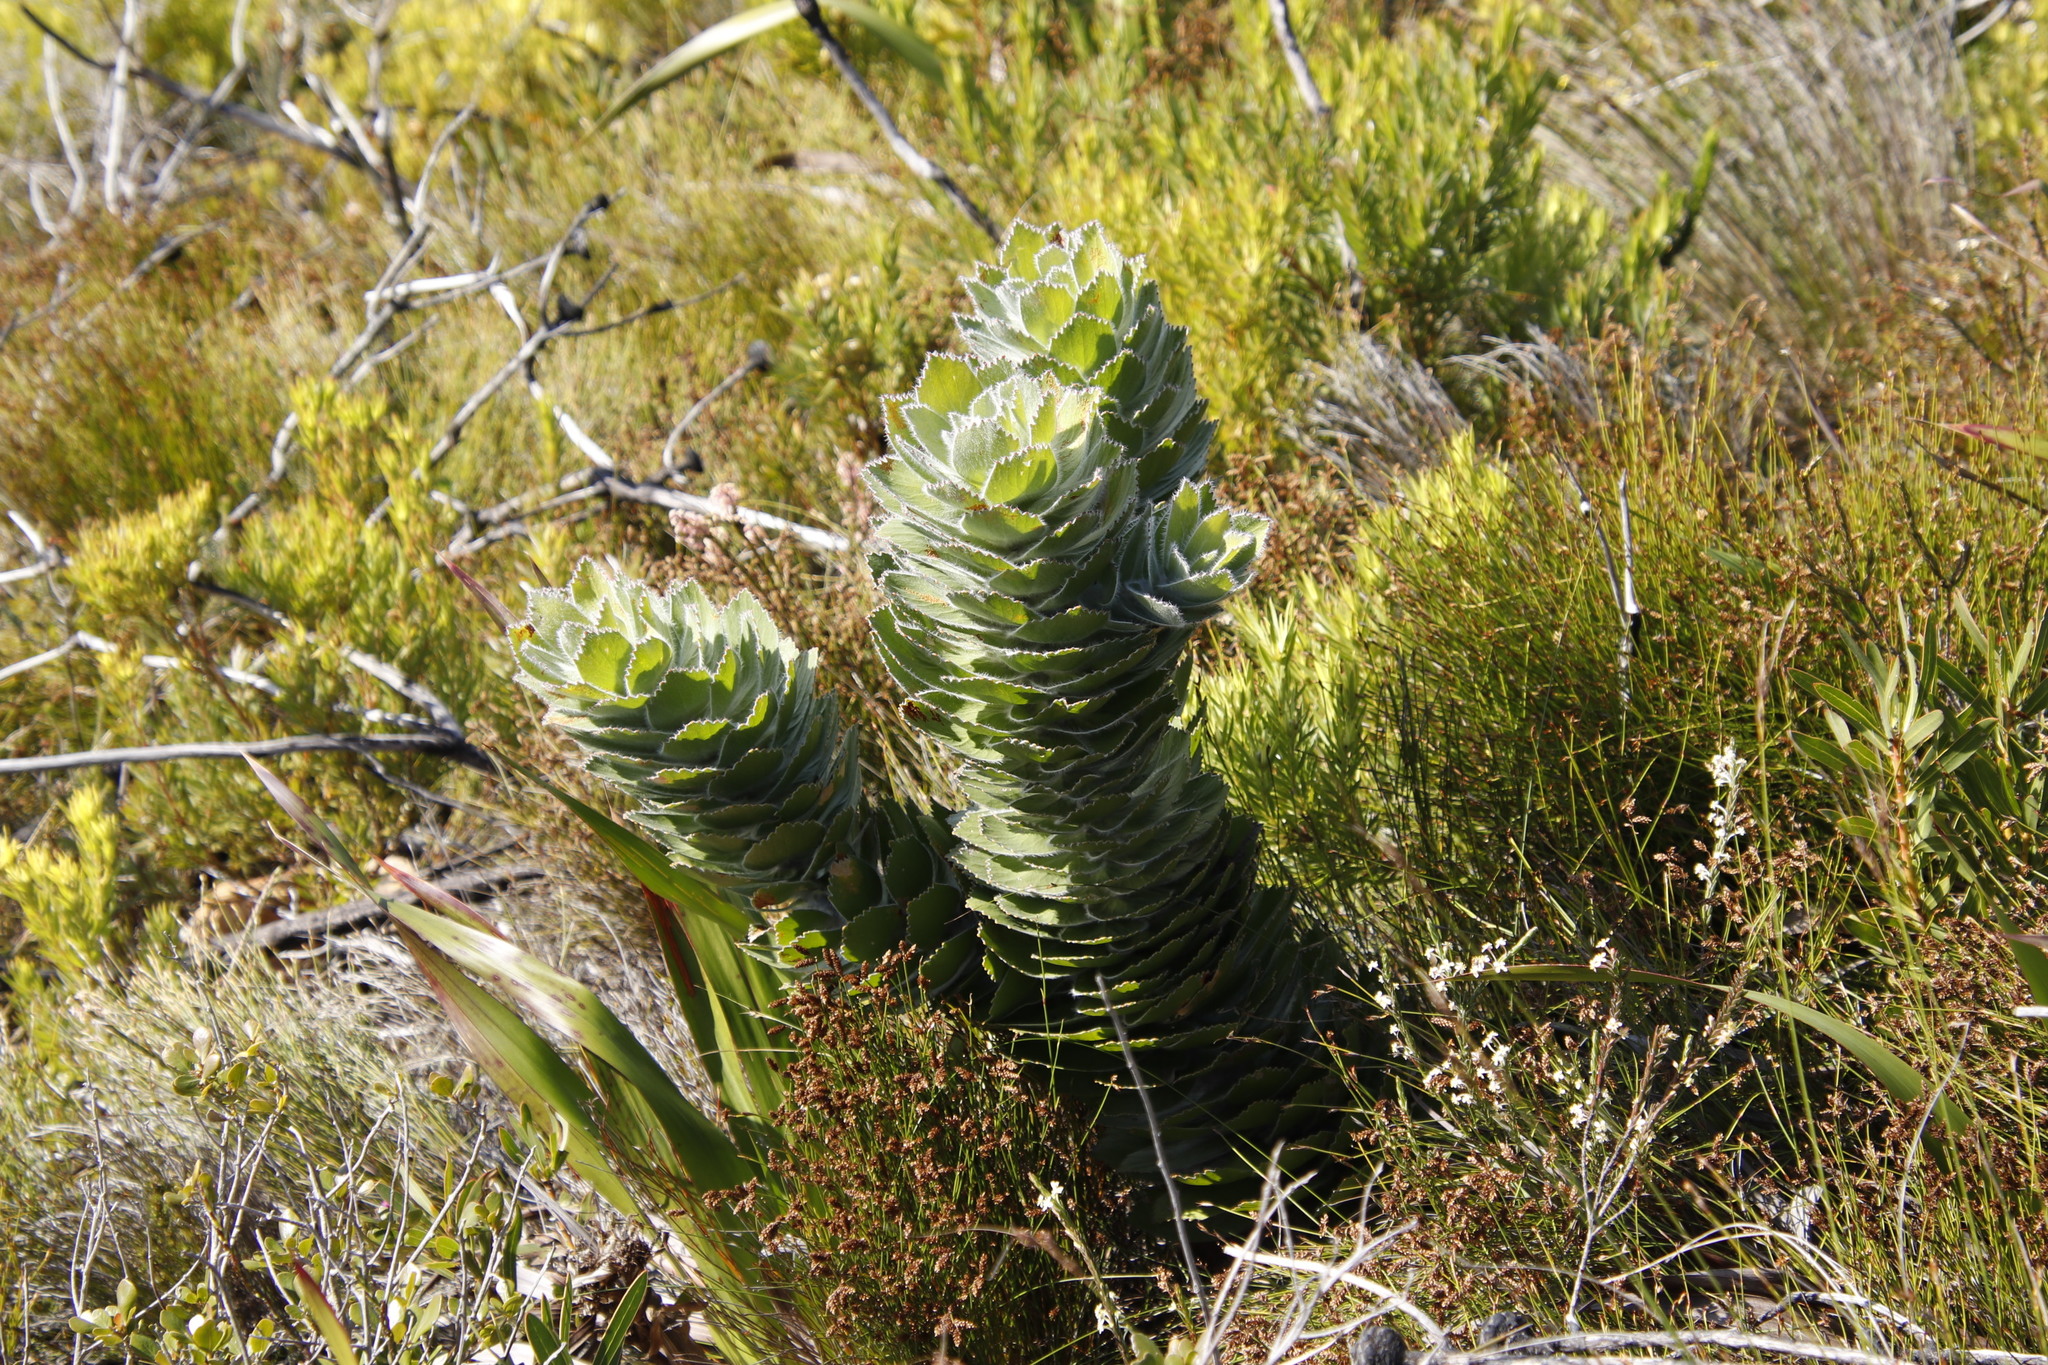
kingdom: Plantae
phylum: Tracheophyta
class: Magnoliopsida
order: Proteales
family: Proteaceae
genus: Leucospermum
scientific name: Leucospermum conocarpodendron
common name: Tree pincushion
